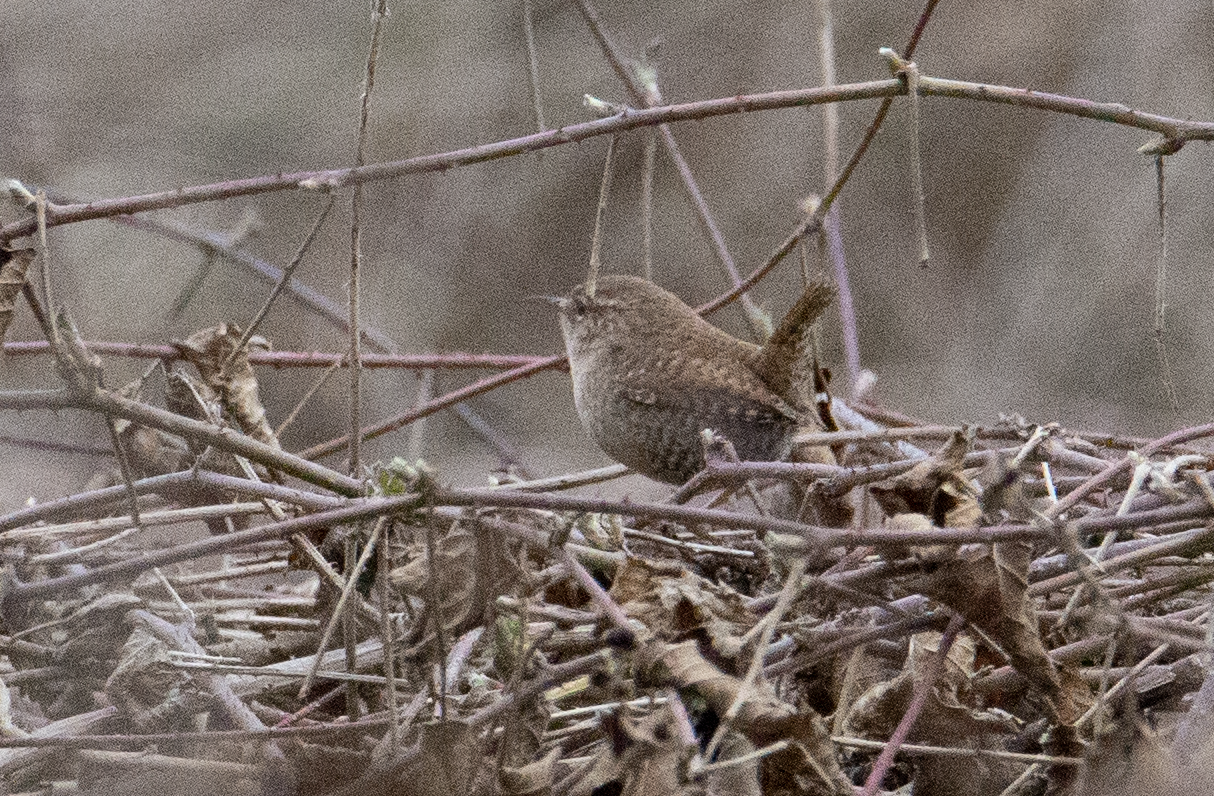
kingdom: Animalia
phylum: Chordata
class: Aves
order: Passeriformes
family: Troglodytidae
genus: Troglodytes
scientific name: Troglodytes troglodytes
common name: Eurasian wren
